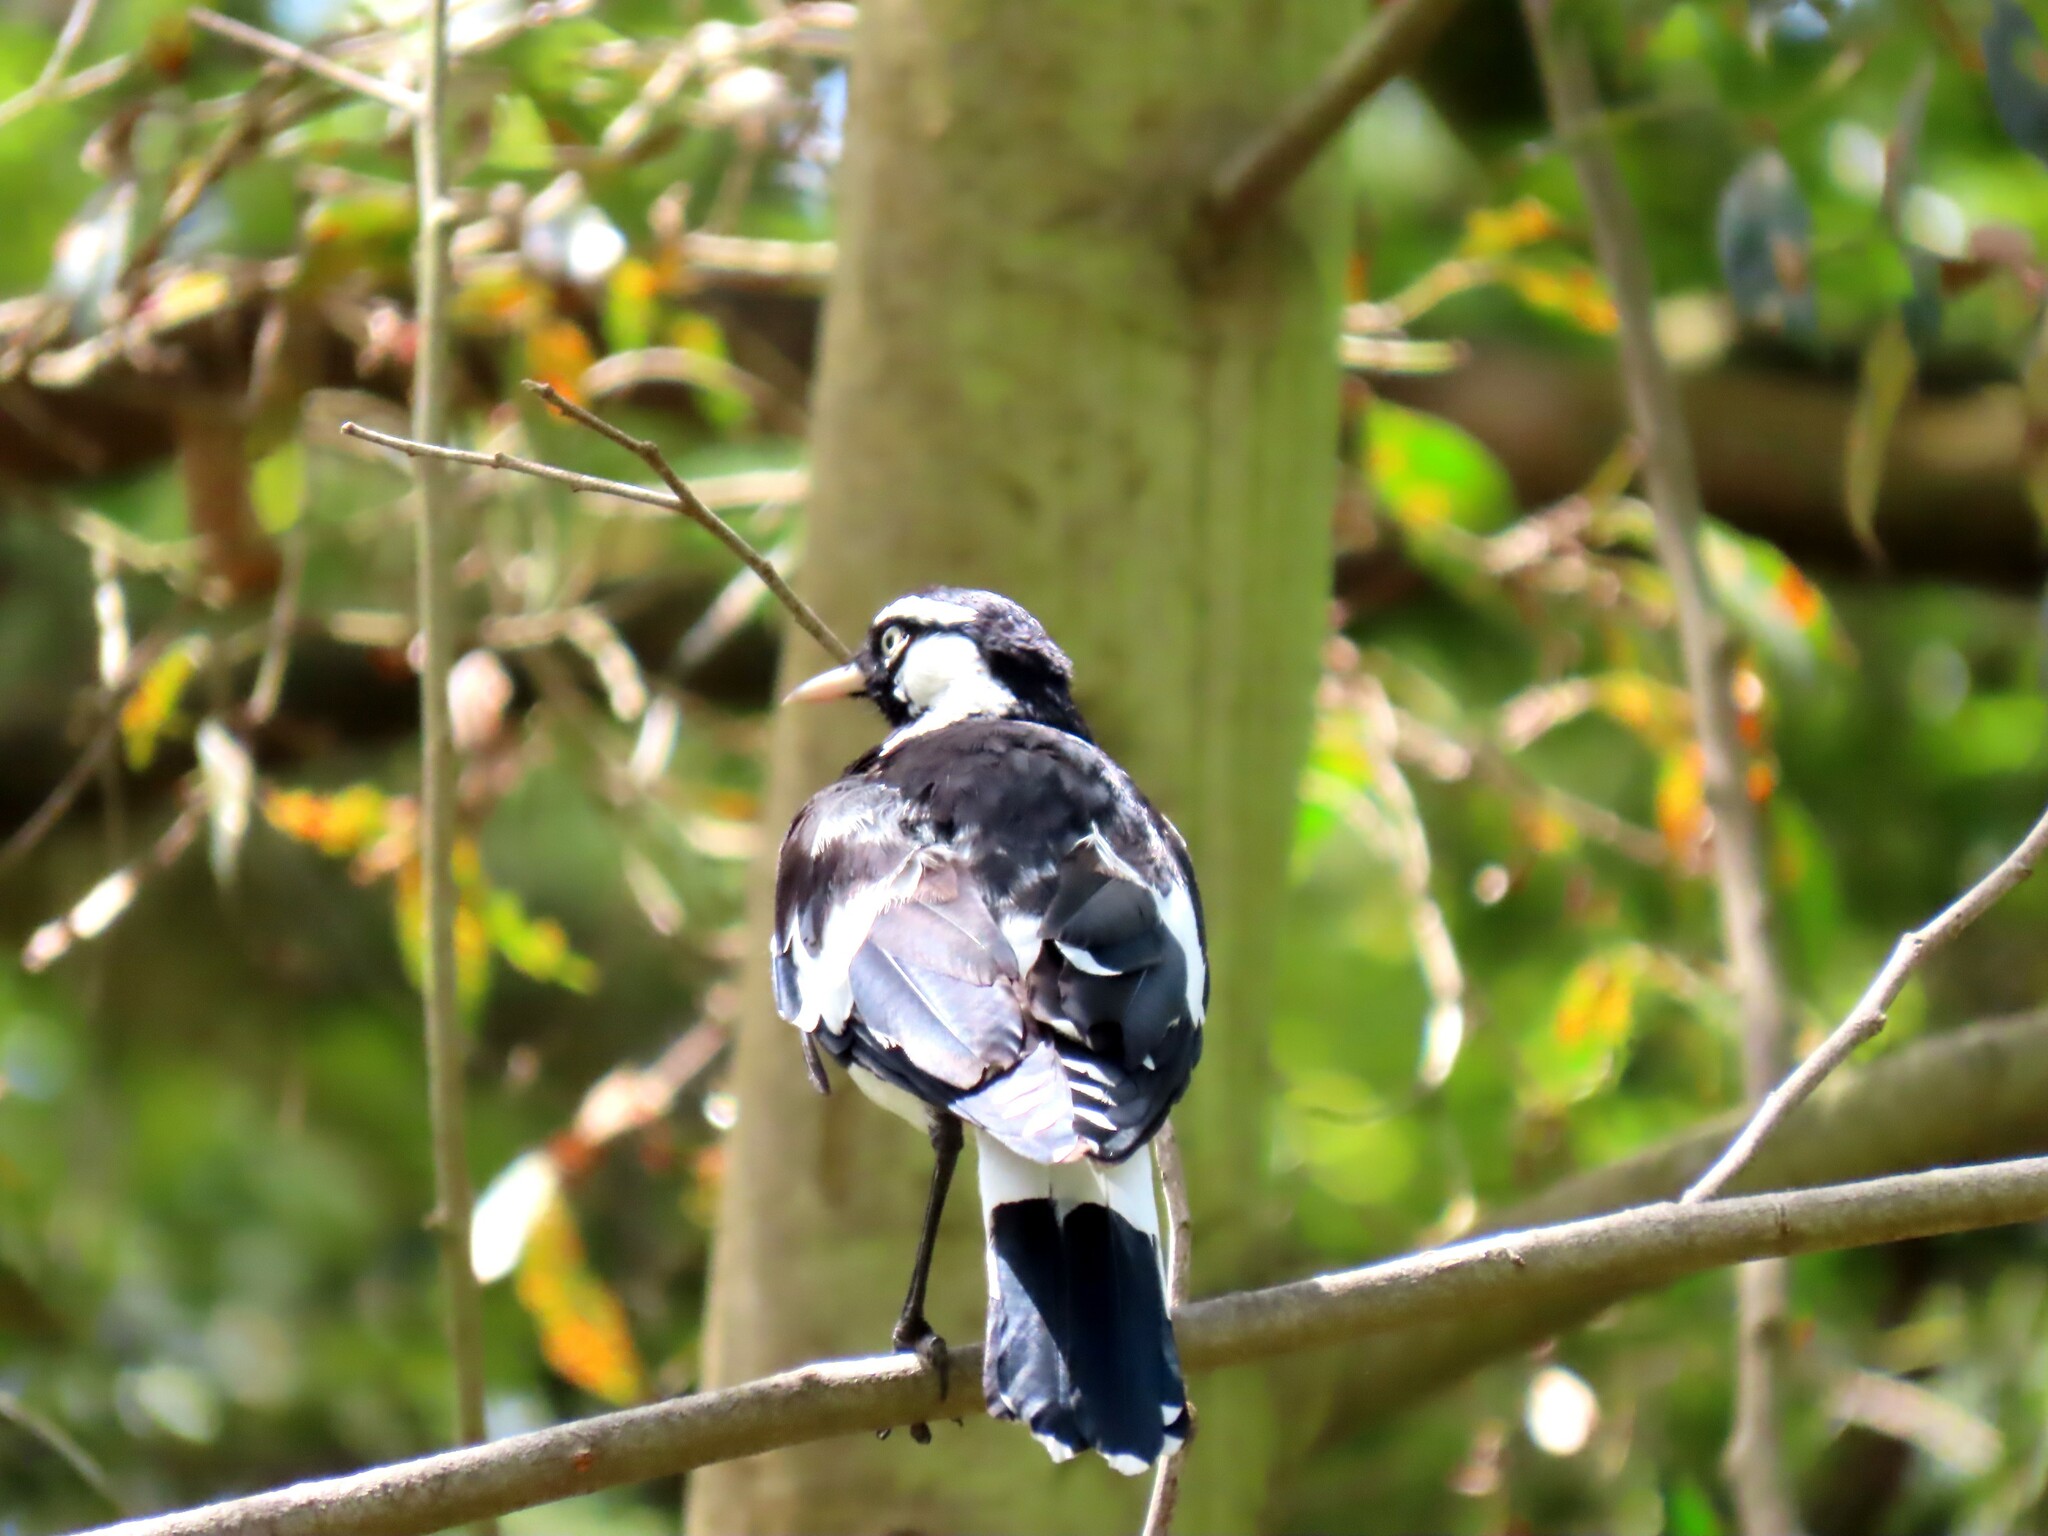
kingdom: Animalia
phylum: Chordata
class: Aves
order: Passeriformes
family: Monarchidae
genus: Grallina
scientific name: Grallina cyanoleuca
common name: Magpie-lark
